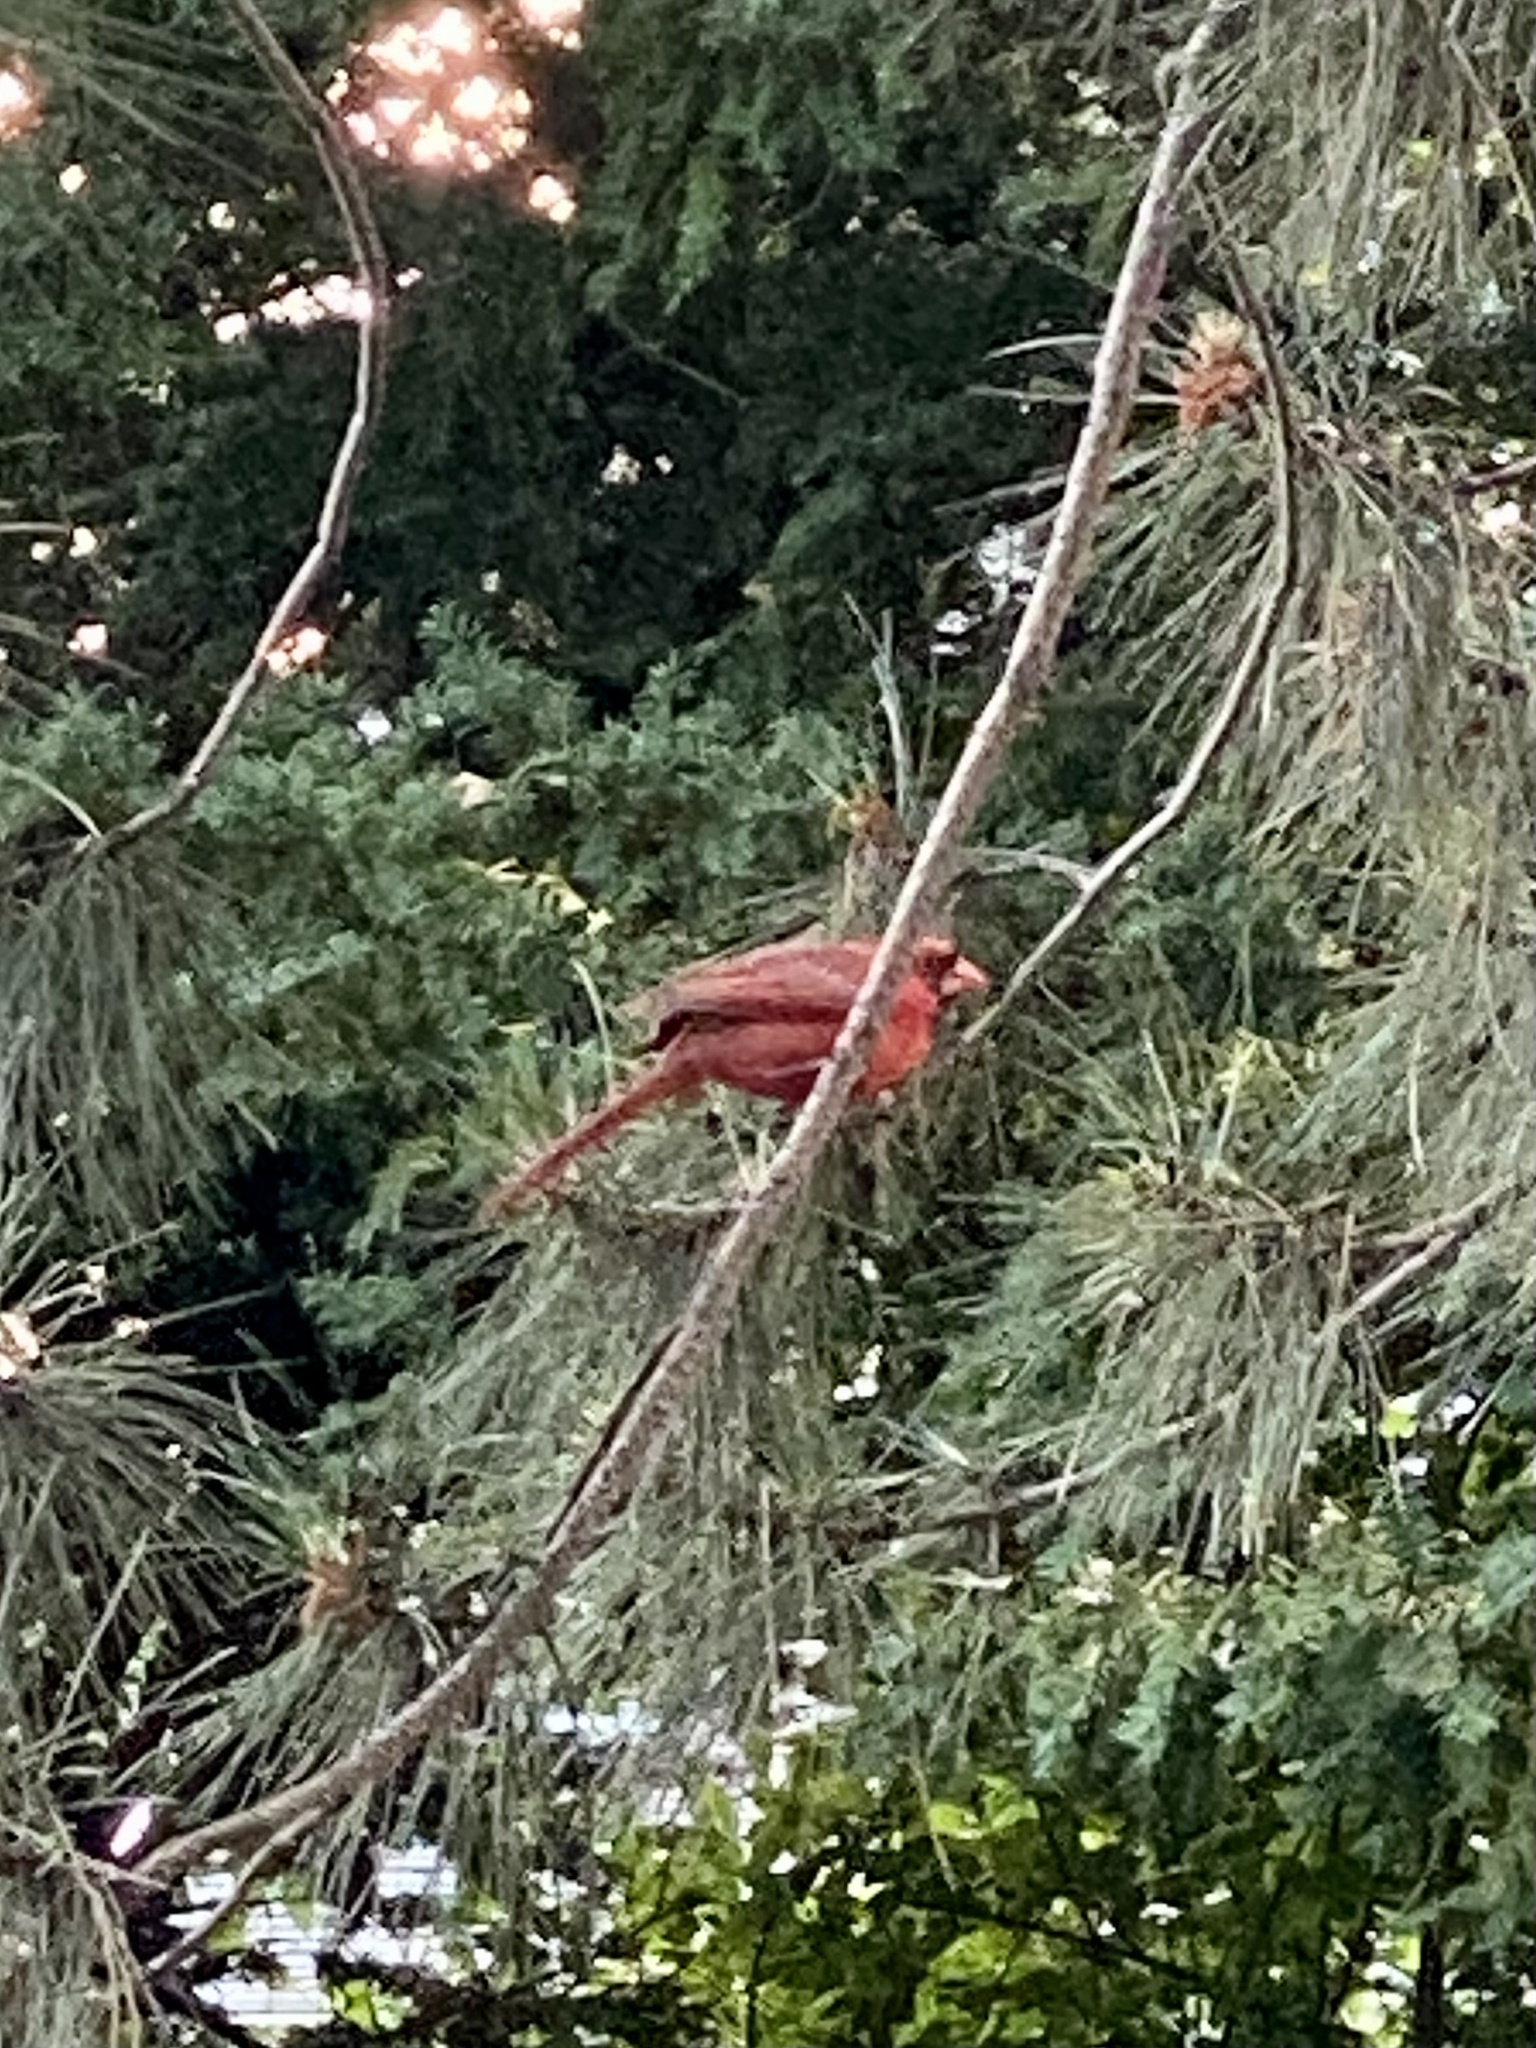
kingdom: Animalia
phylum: Chordata
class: Aves
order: Passeriformes
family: Cardinalidae
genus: Cardinalis
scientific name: Cardinalis cardinalis
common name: Northern cardinal
